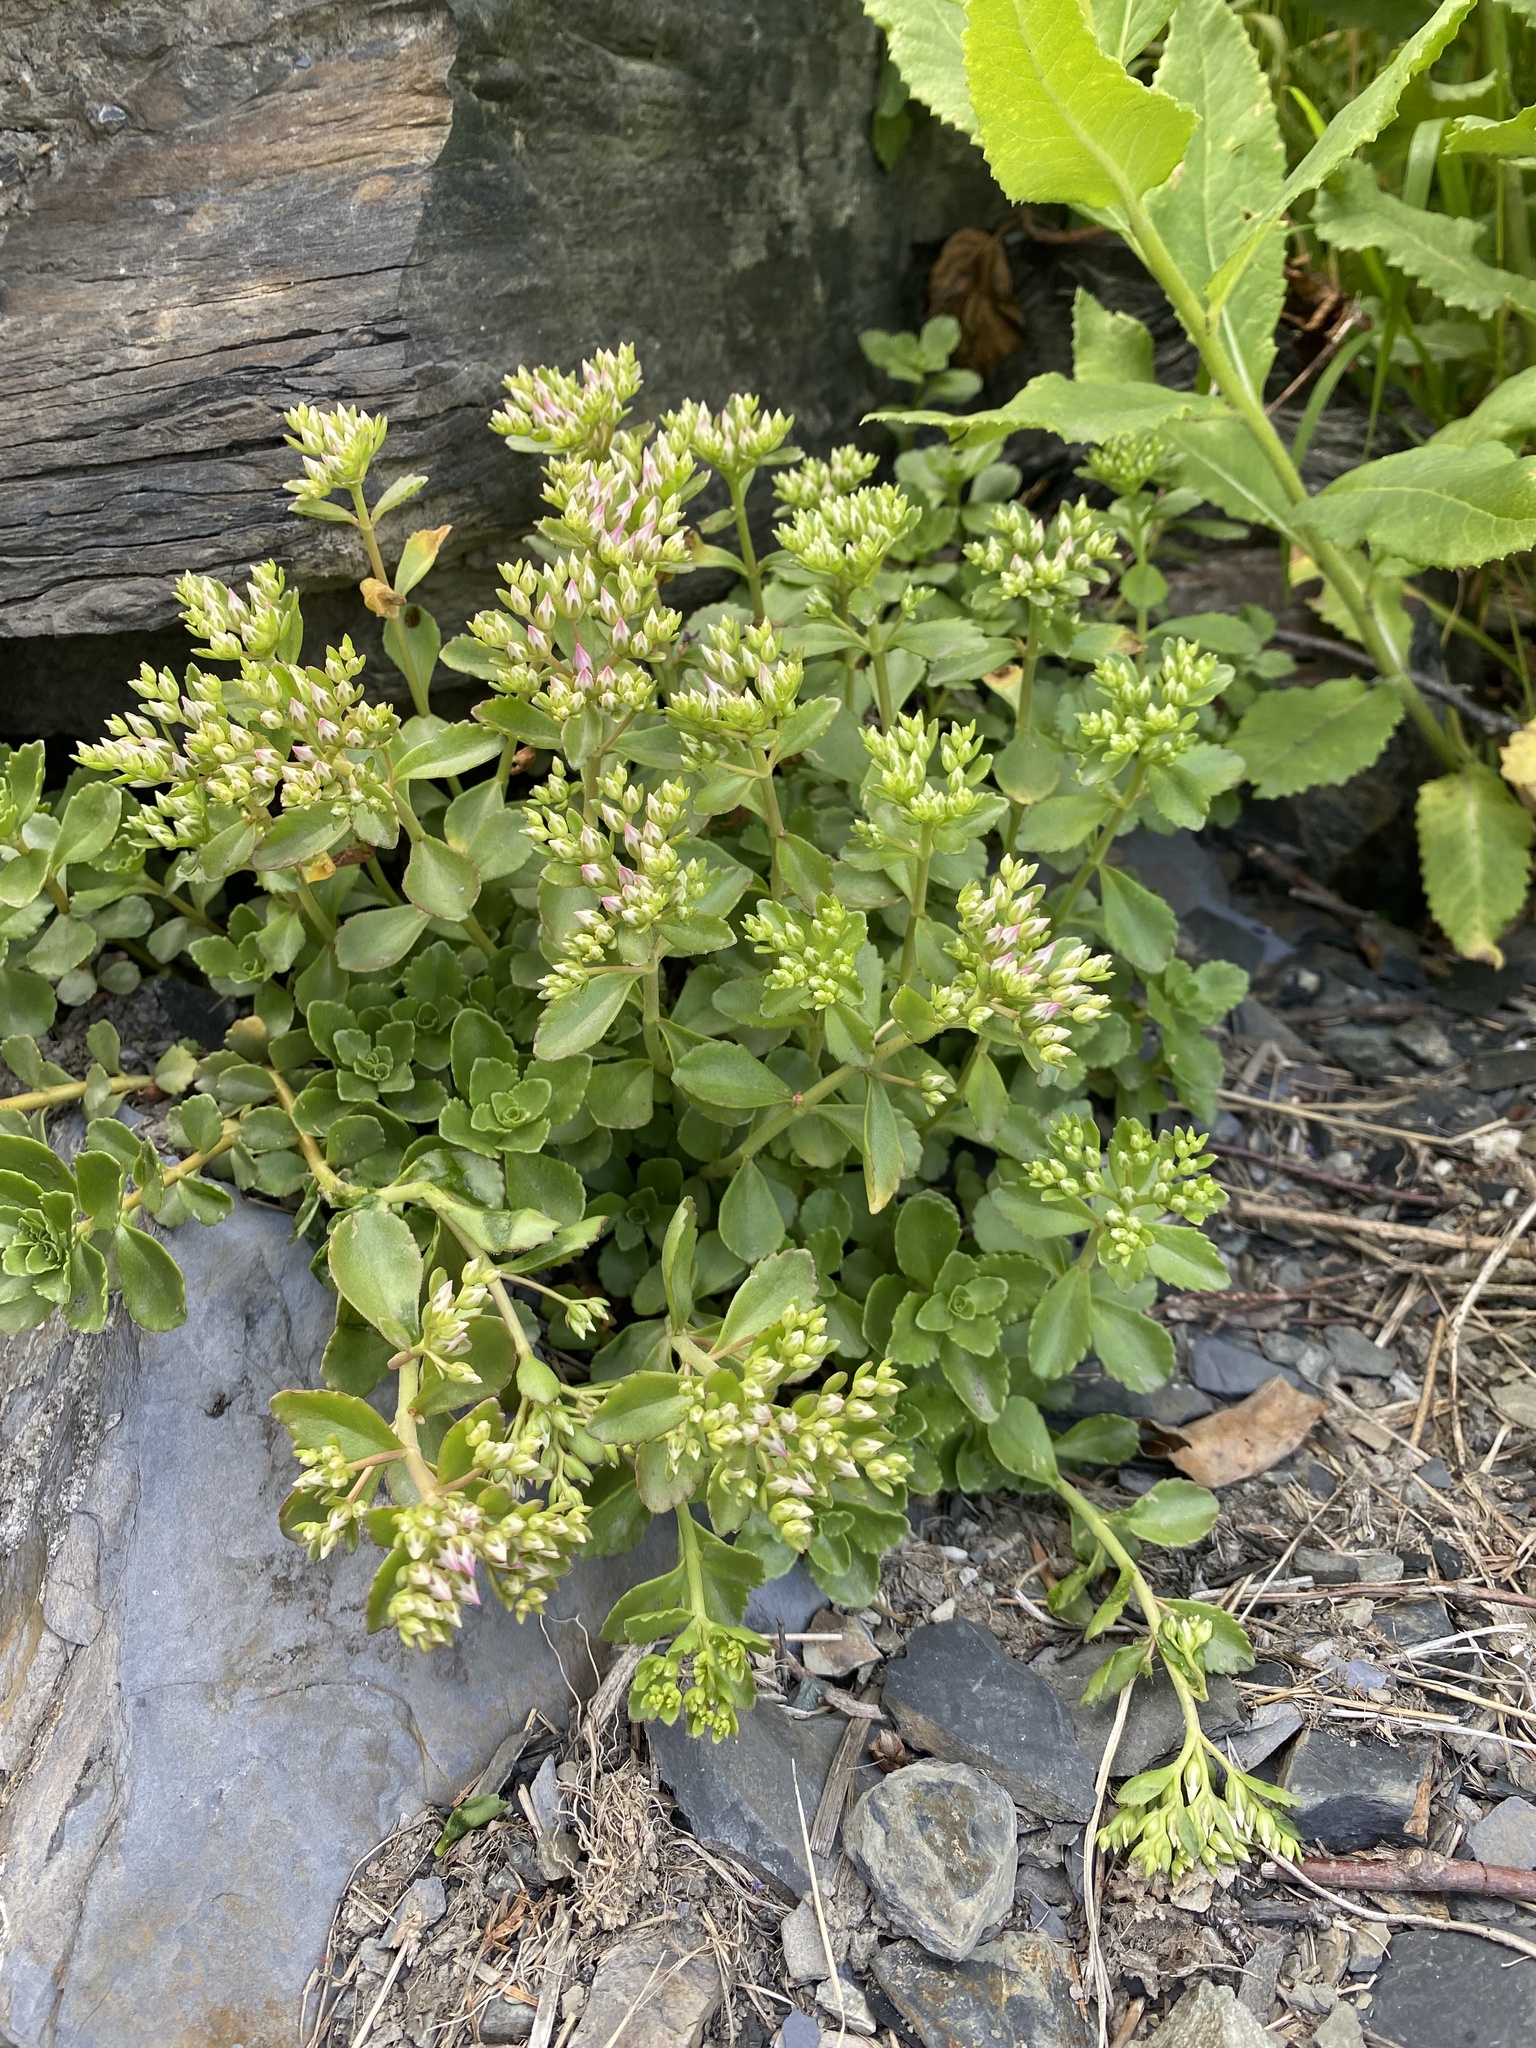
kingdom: Plantae
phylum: Tracheophyta
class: Magnoliopsida
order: Saxifragales
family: Crassulaceae
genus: Phedimus
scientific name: Phedimus spurius
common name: Caucasian stonecrop
